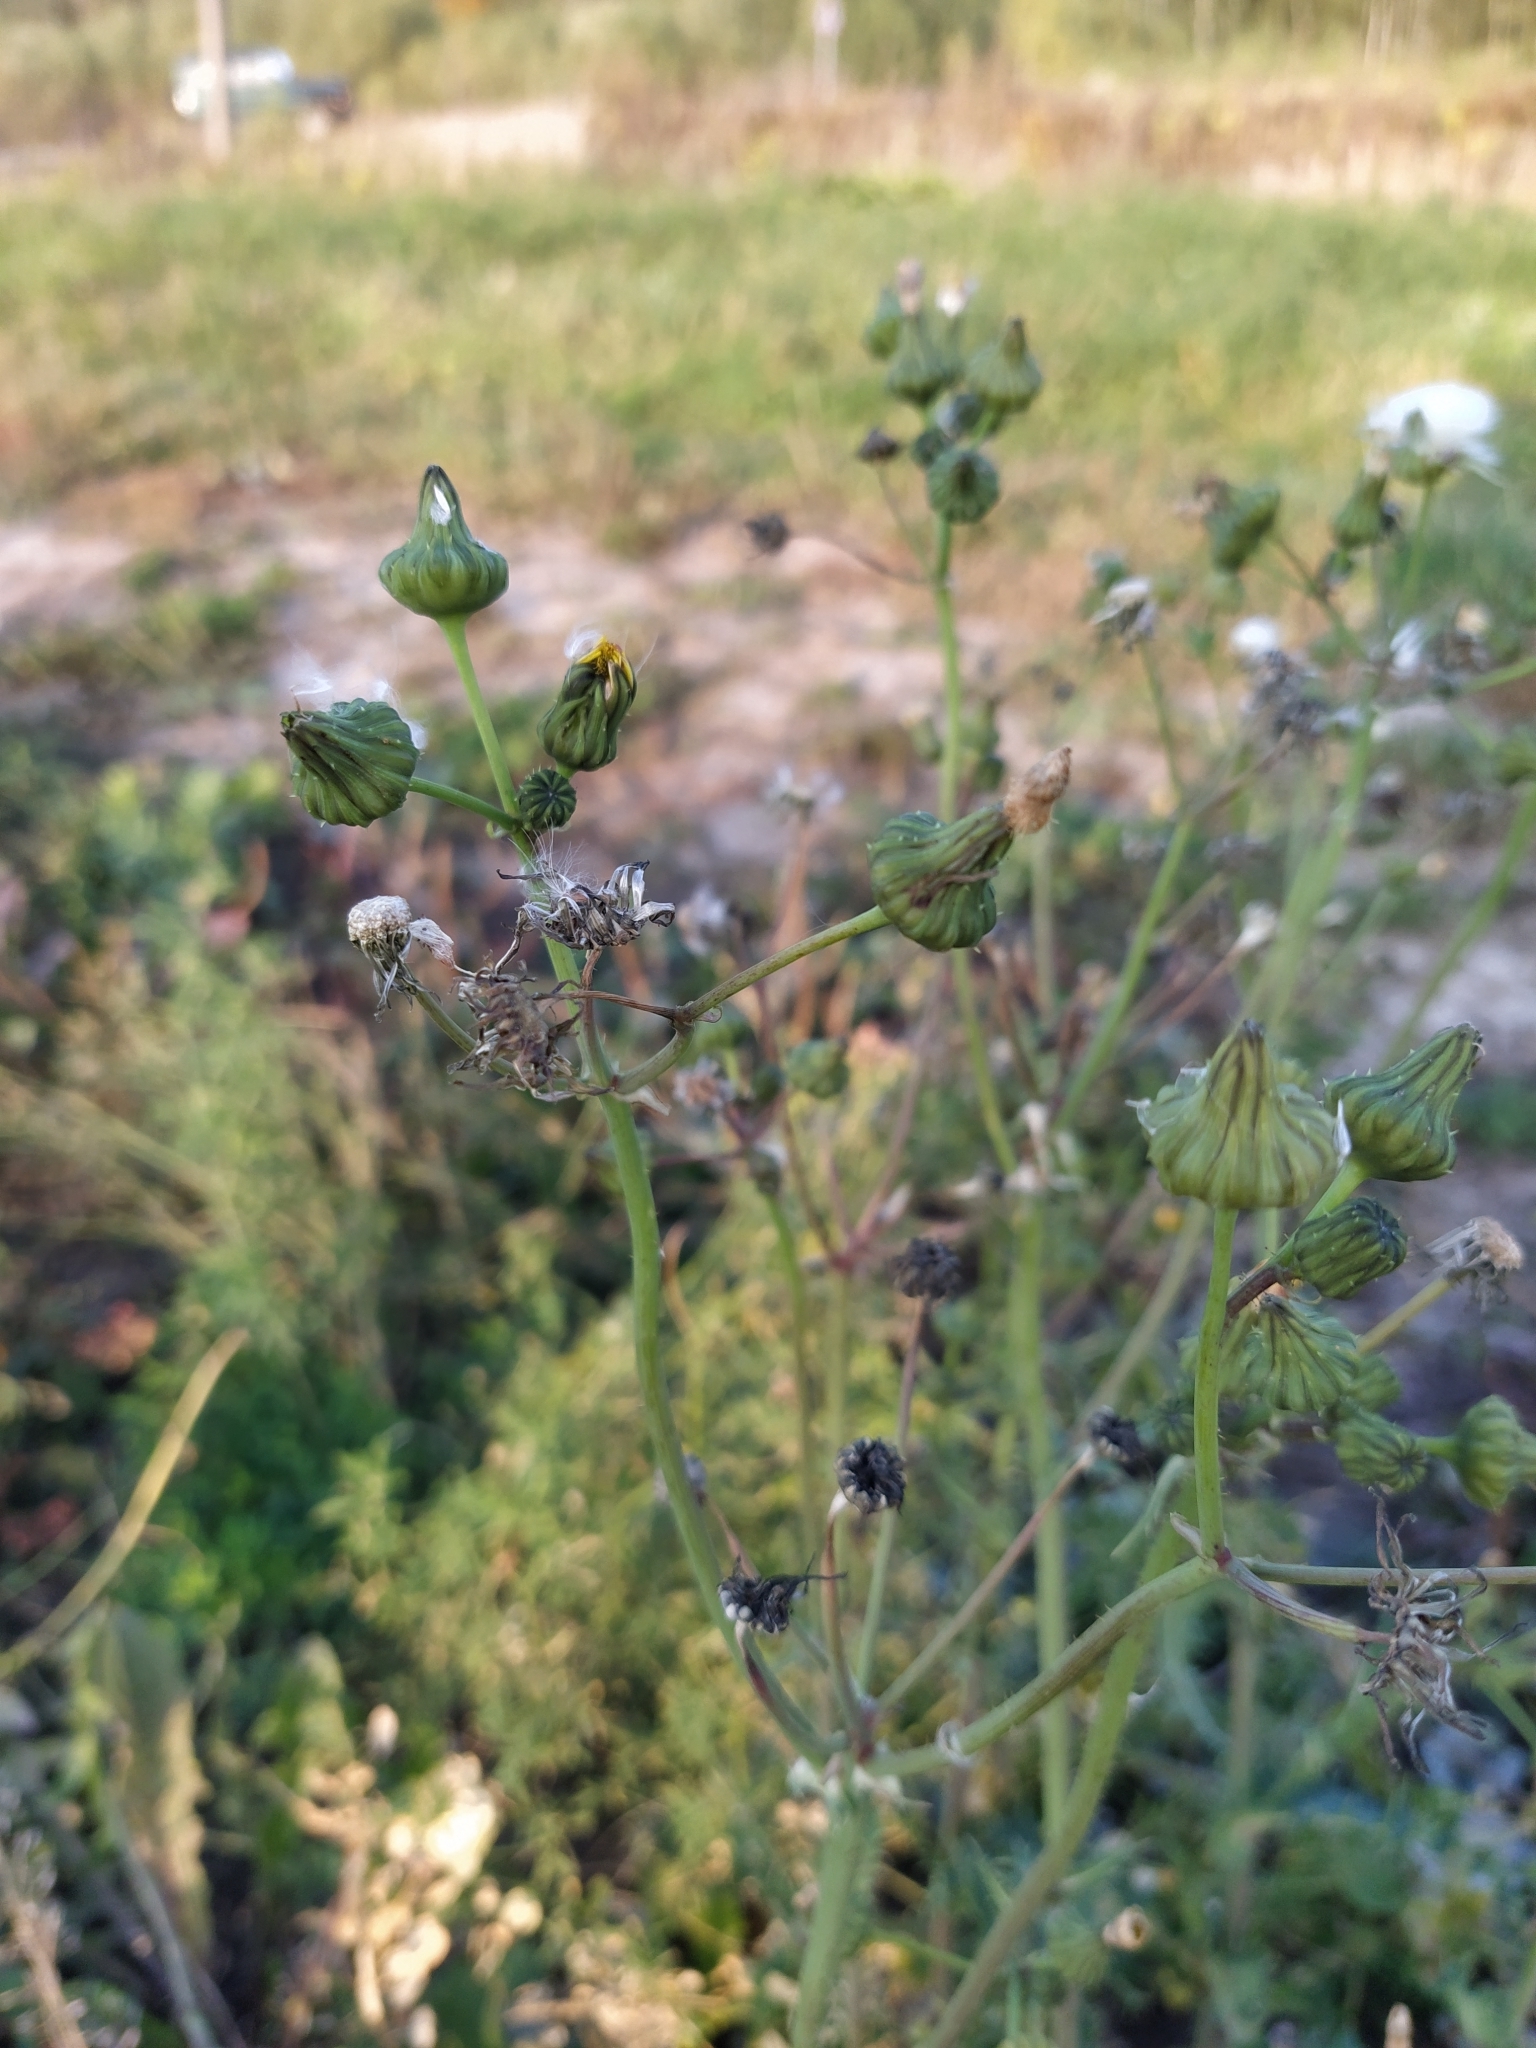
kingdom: Plantae
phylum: Tracheophyta
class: Magnoliopsida
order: Asterales
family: Asteraceae
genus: Sonchus
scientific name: Sonchus asper
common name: Prickly sow-thistle
